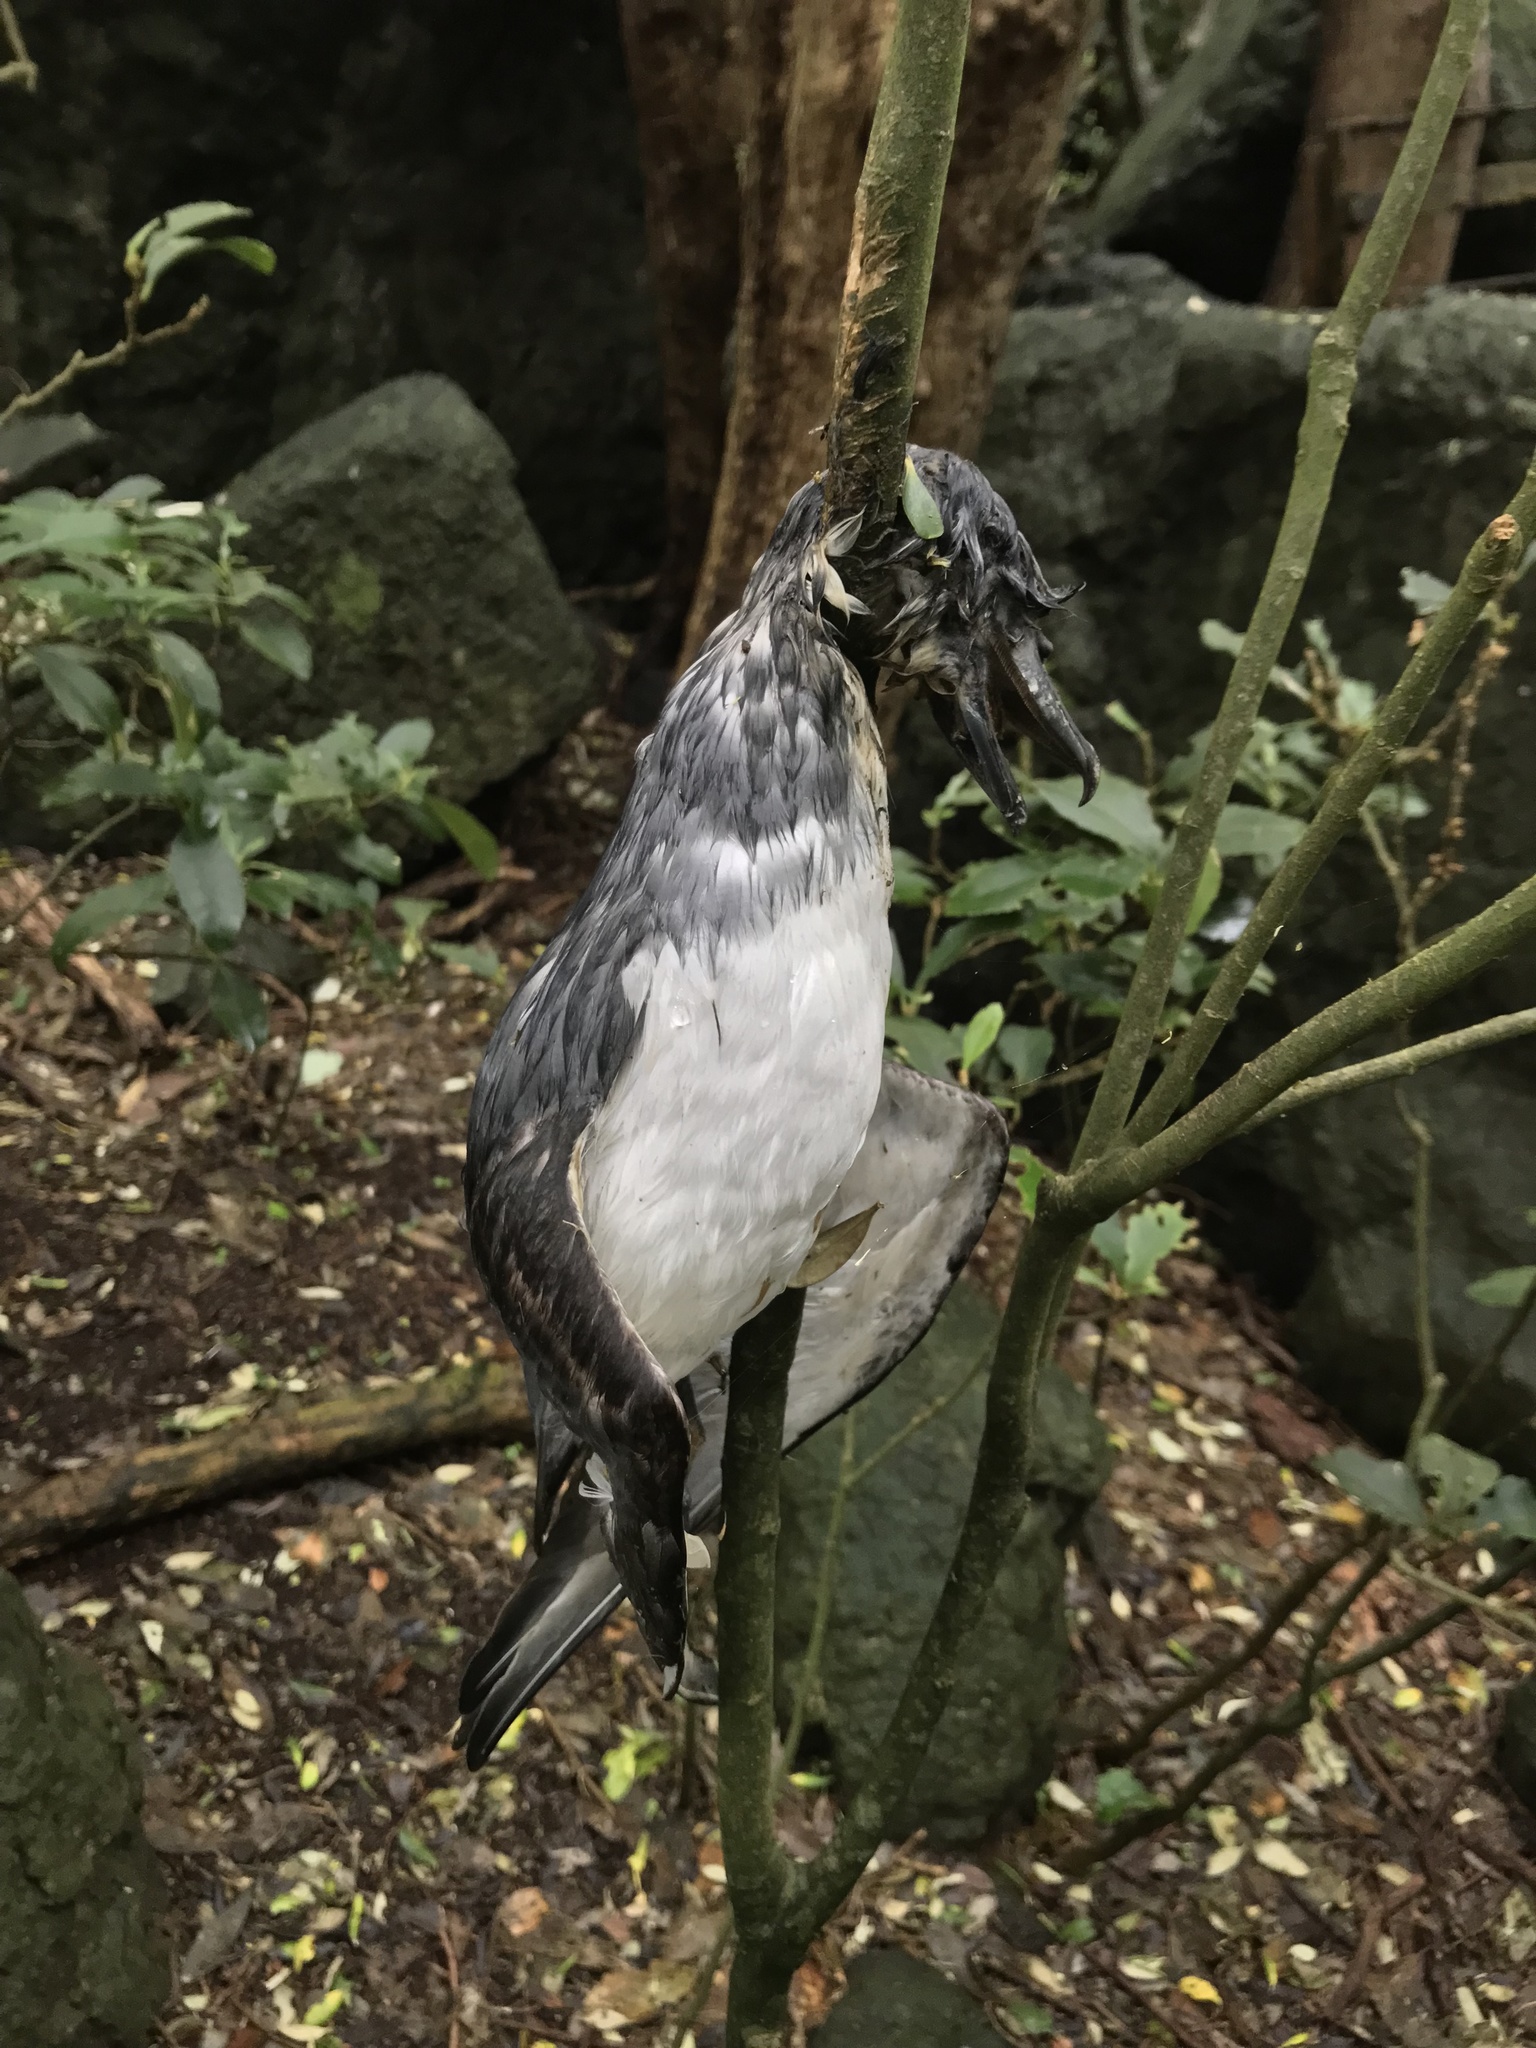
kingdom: Animalia
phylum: Chordata
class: Aves
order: Procellariiformes
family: Procellariidae
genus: Pachyptila
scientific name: Pachyptila vittata
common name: Broad-billed prion
